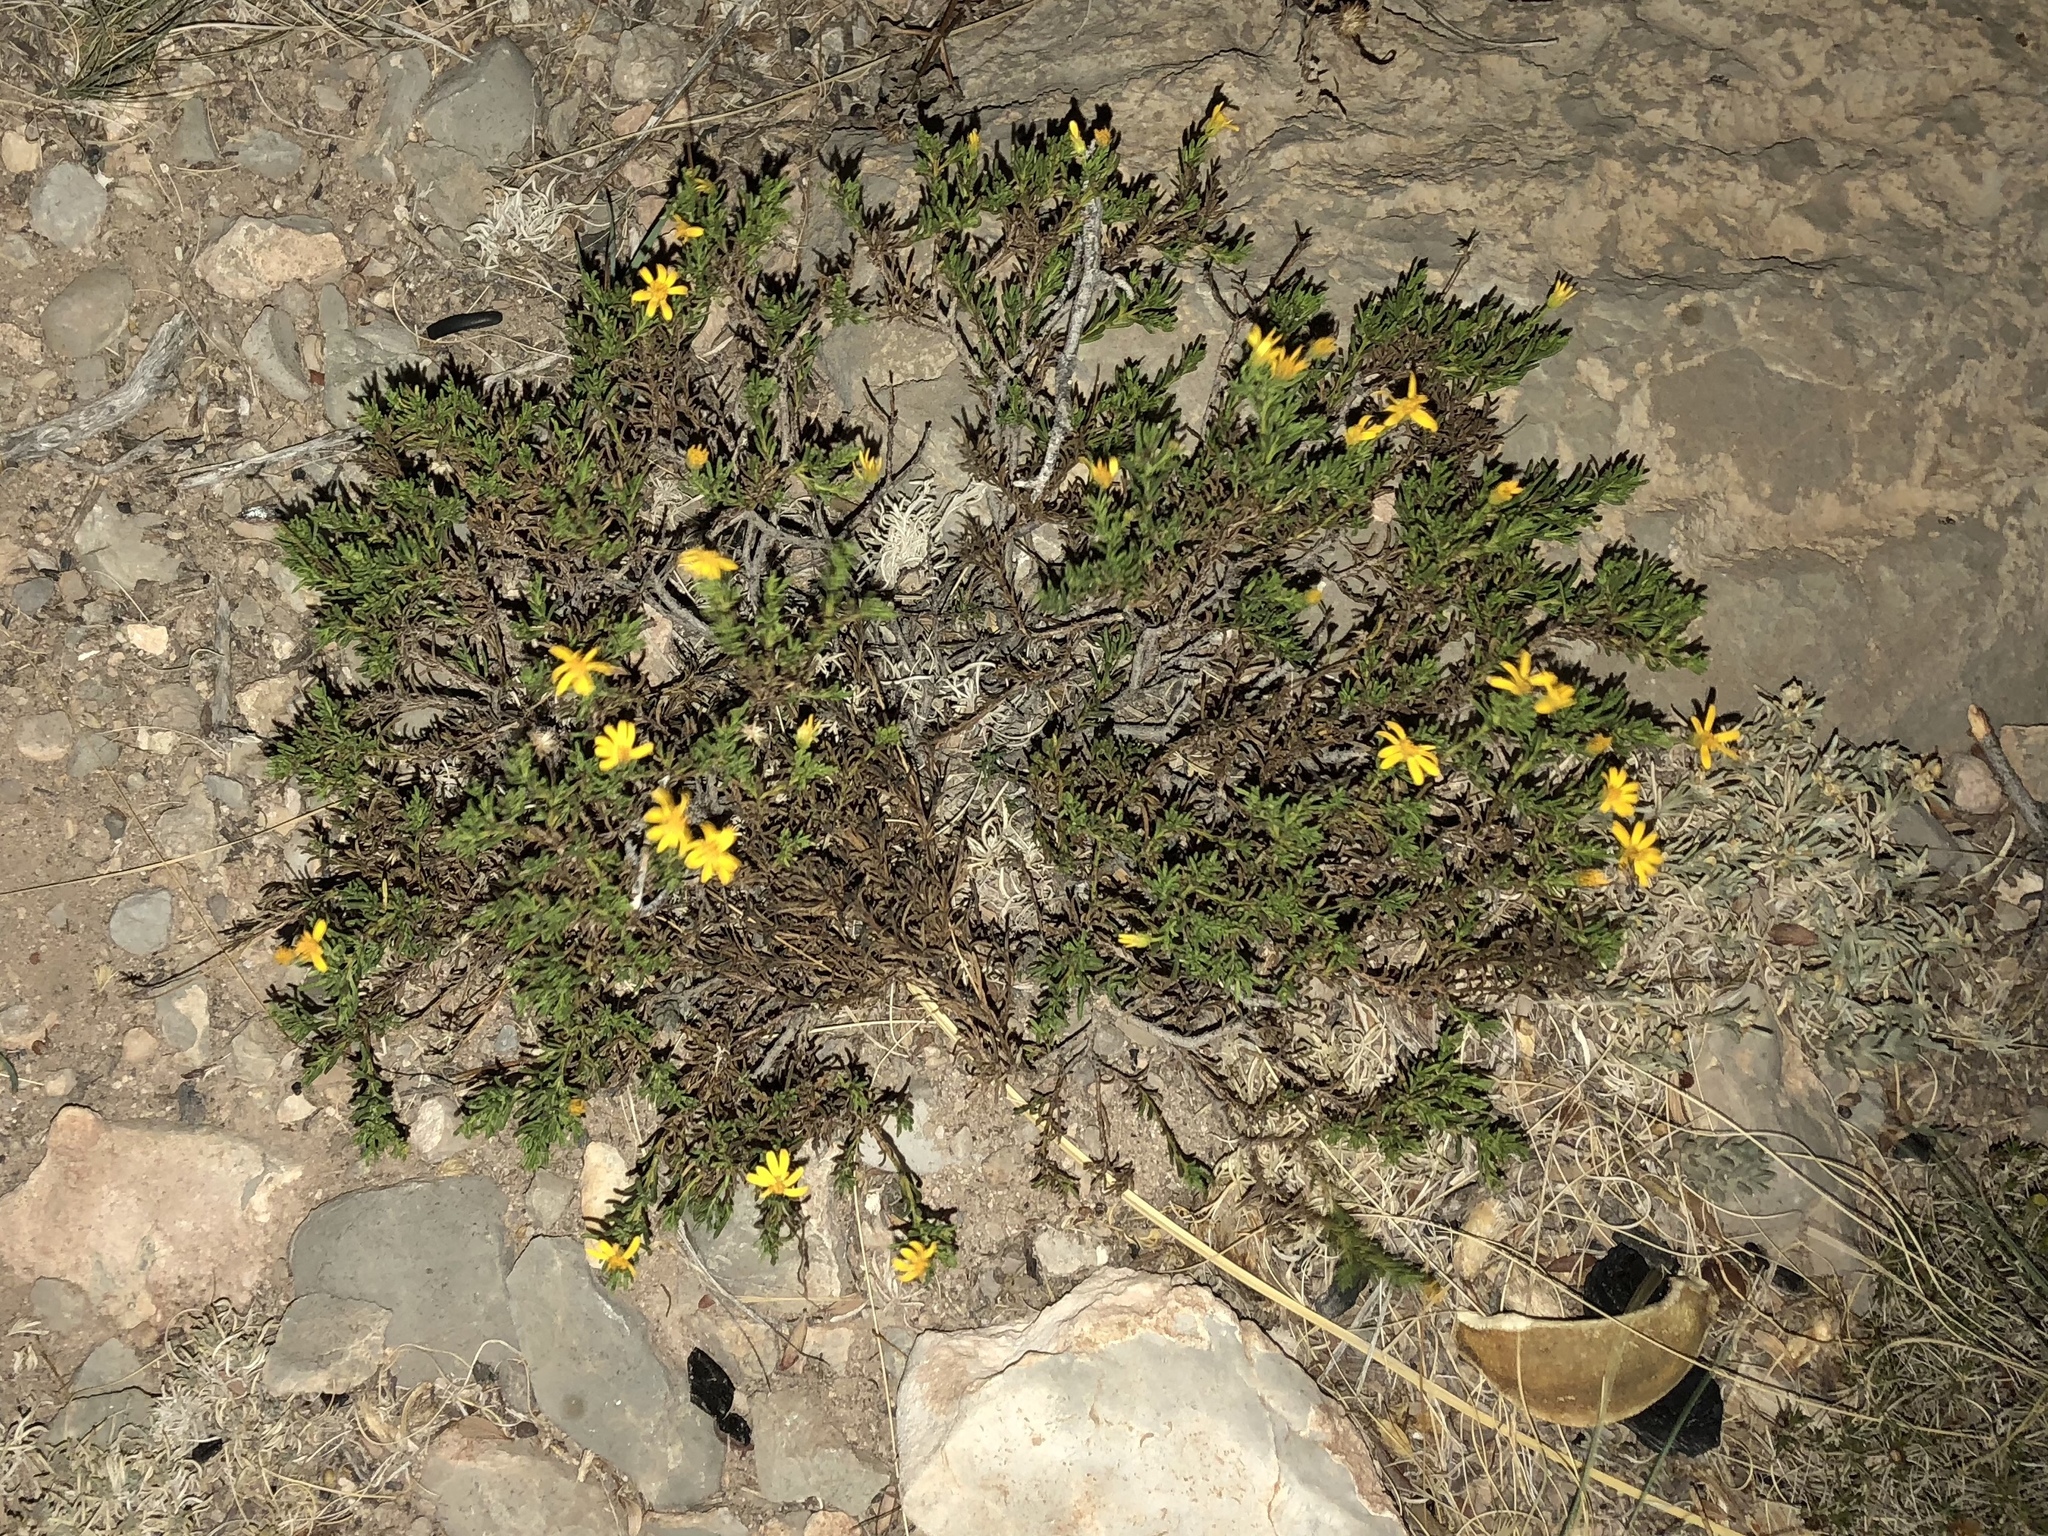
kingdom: Plantae
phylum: Tracheophyta
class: Magnoliopsida
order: Asterales
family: Asteraceae
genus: Chrysactinia
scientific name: Chrysactinia mexicana
